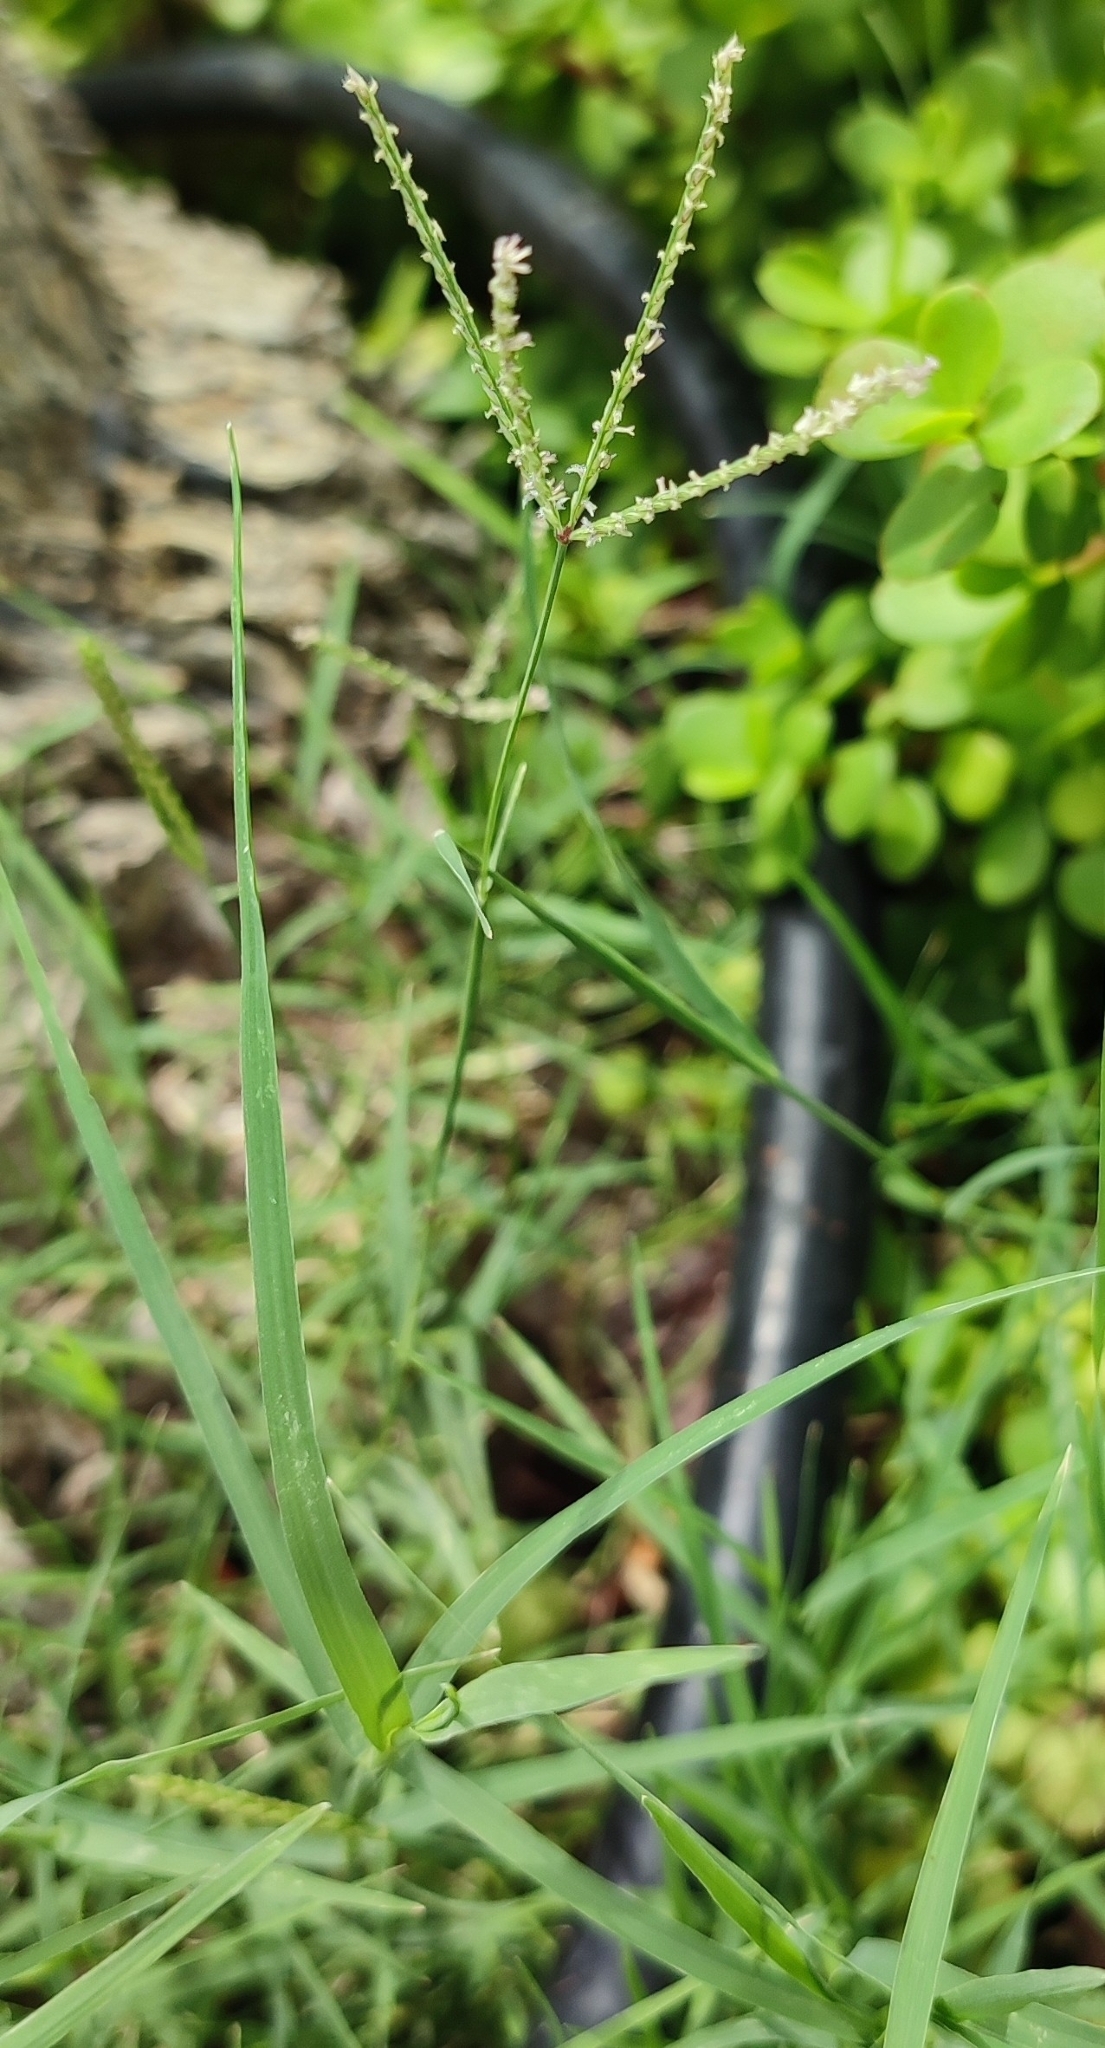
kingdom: Plantae
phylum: Tracheophyta
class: Liliopsida
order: Poales
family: Poaceae
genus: Cynodon
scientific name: Cynodon dactylon
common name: Bermuda grass
